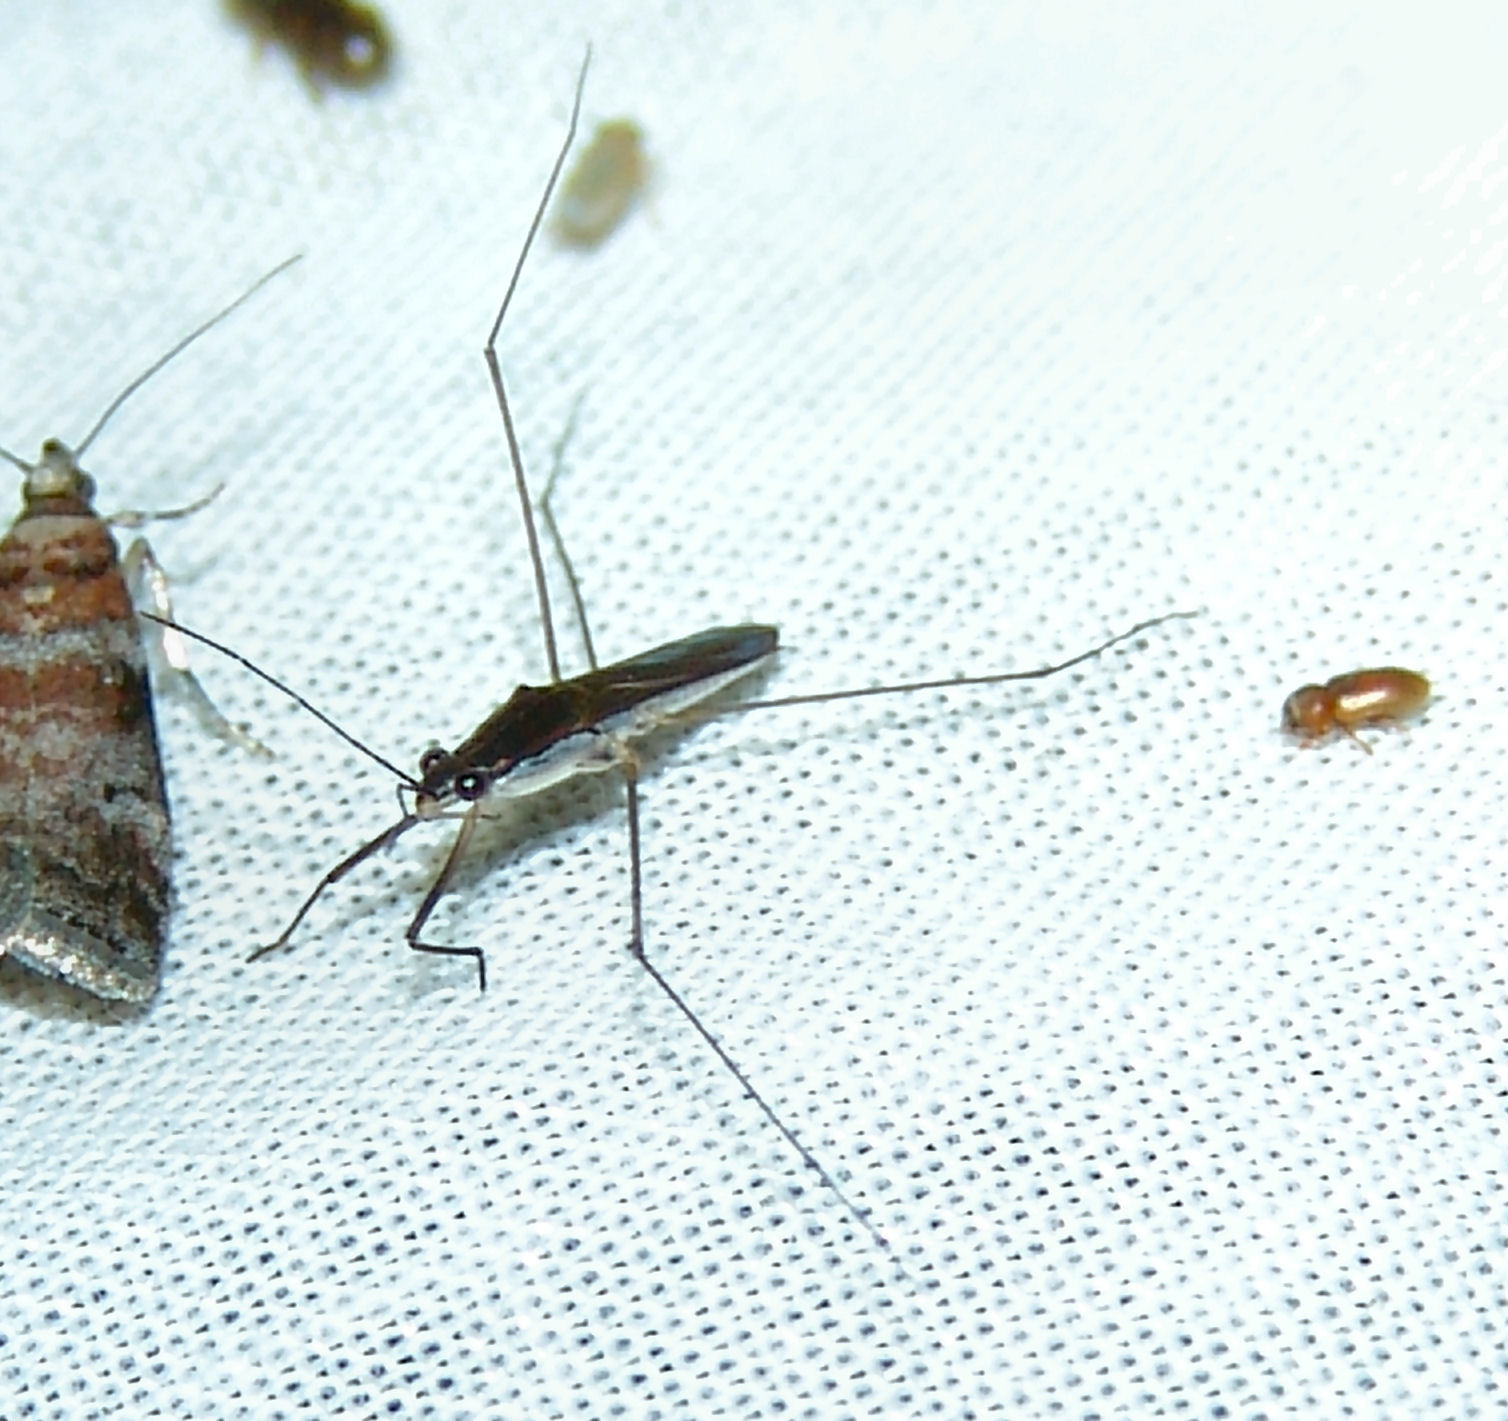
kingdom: Animalia
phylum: Arthropoda
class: Insecta
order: Hemiptera
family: Gerridae
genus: Limnoporus
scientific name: Limnoporus canaliculatus
